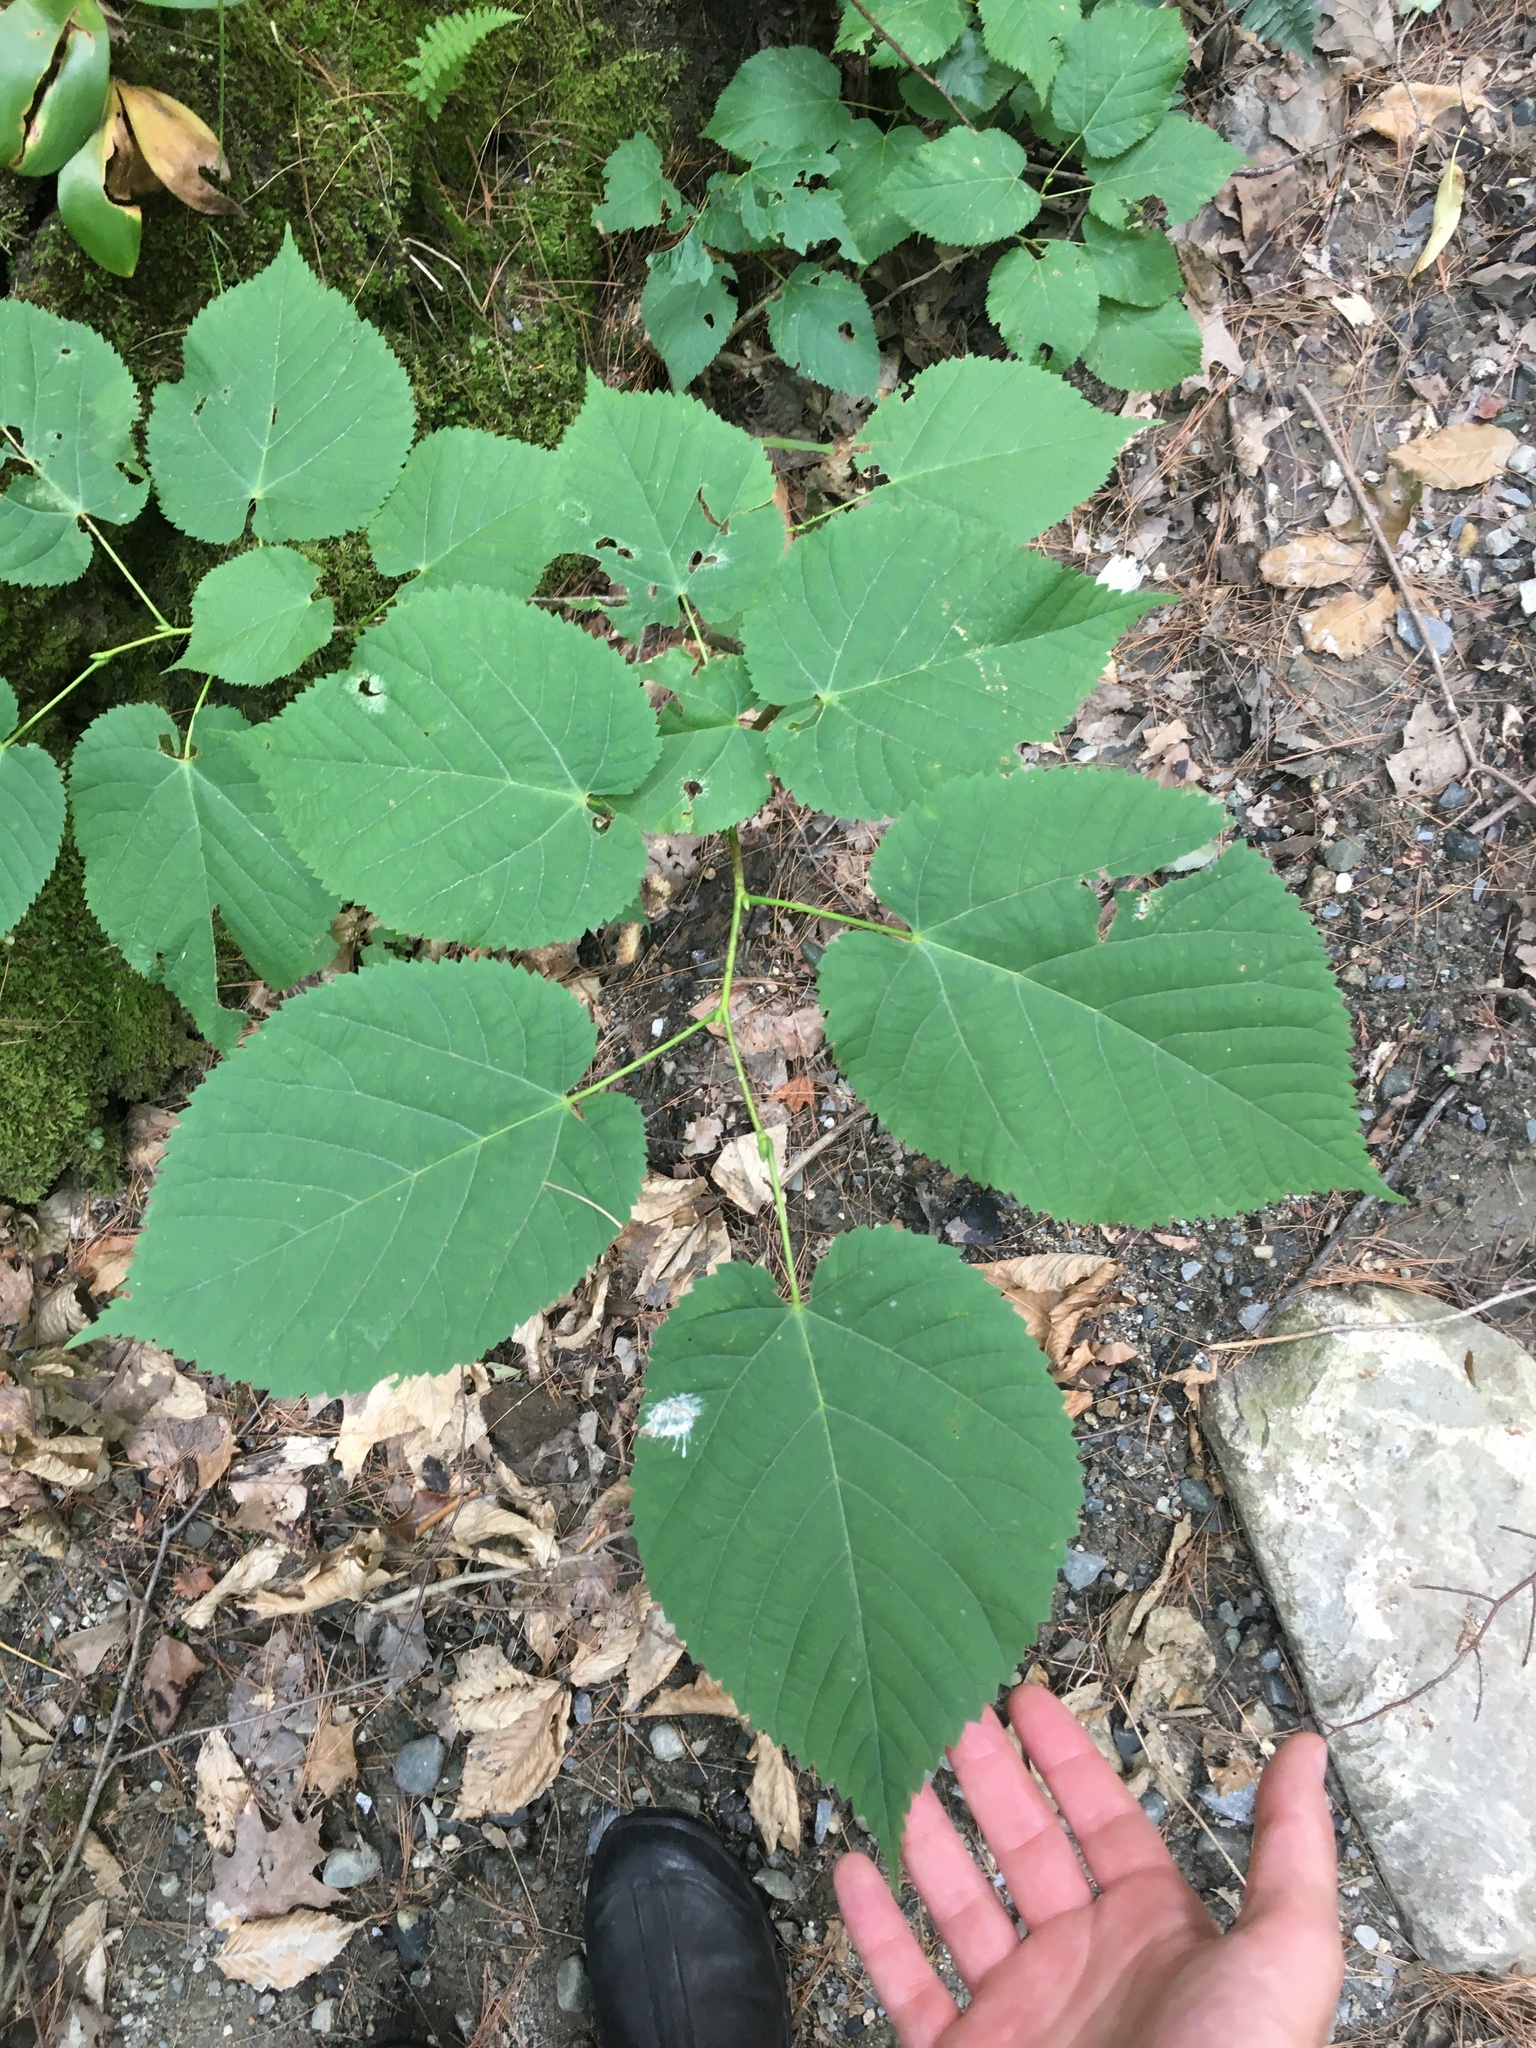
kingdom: Plantae
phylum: Tracheophyta
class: Magnoliopsida
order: Malvales
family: Malvaceae
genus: Tilia
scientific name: Tilia americana
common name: Basswood
